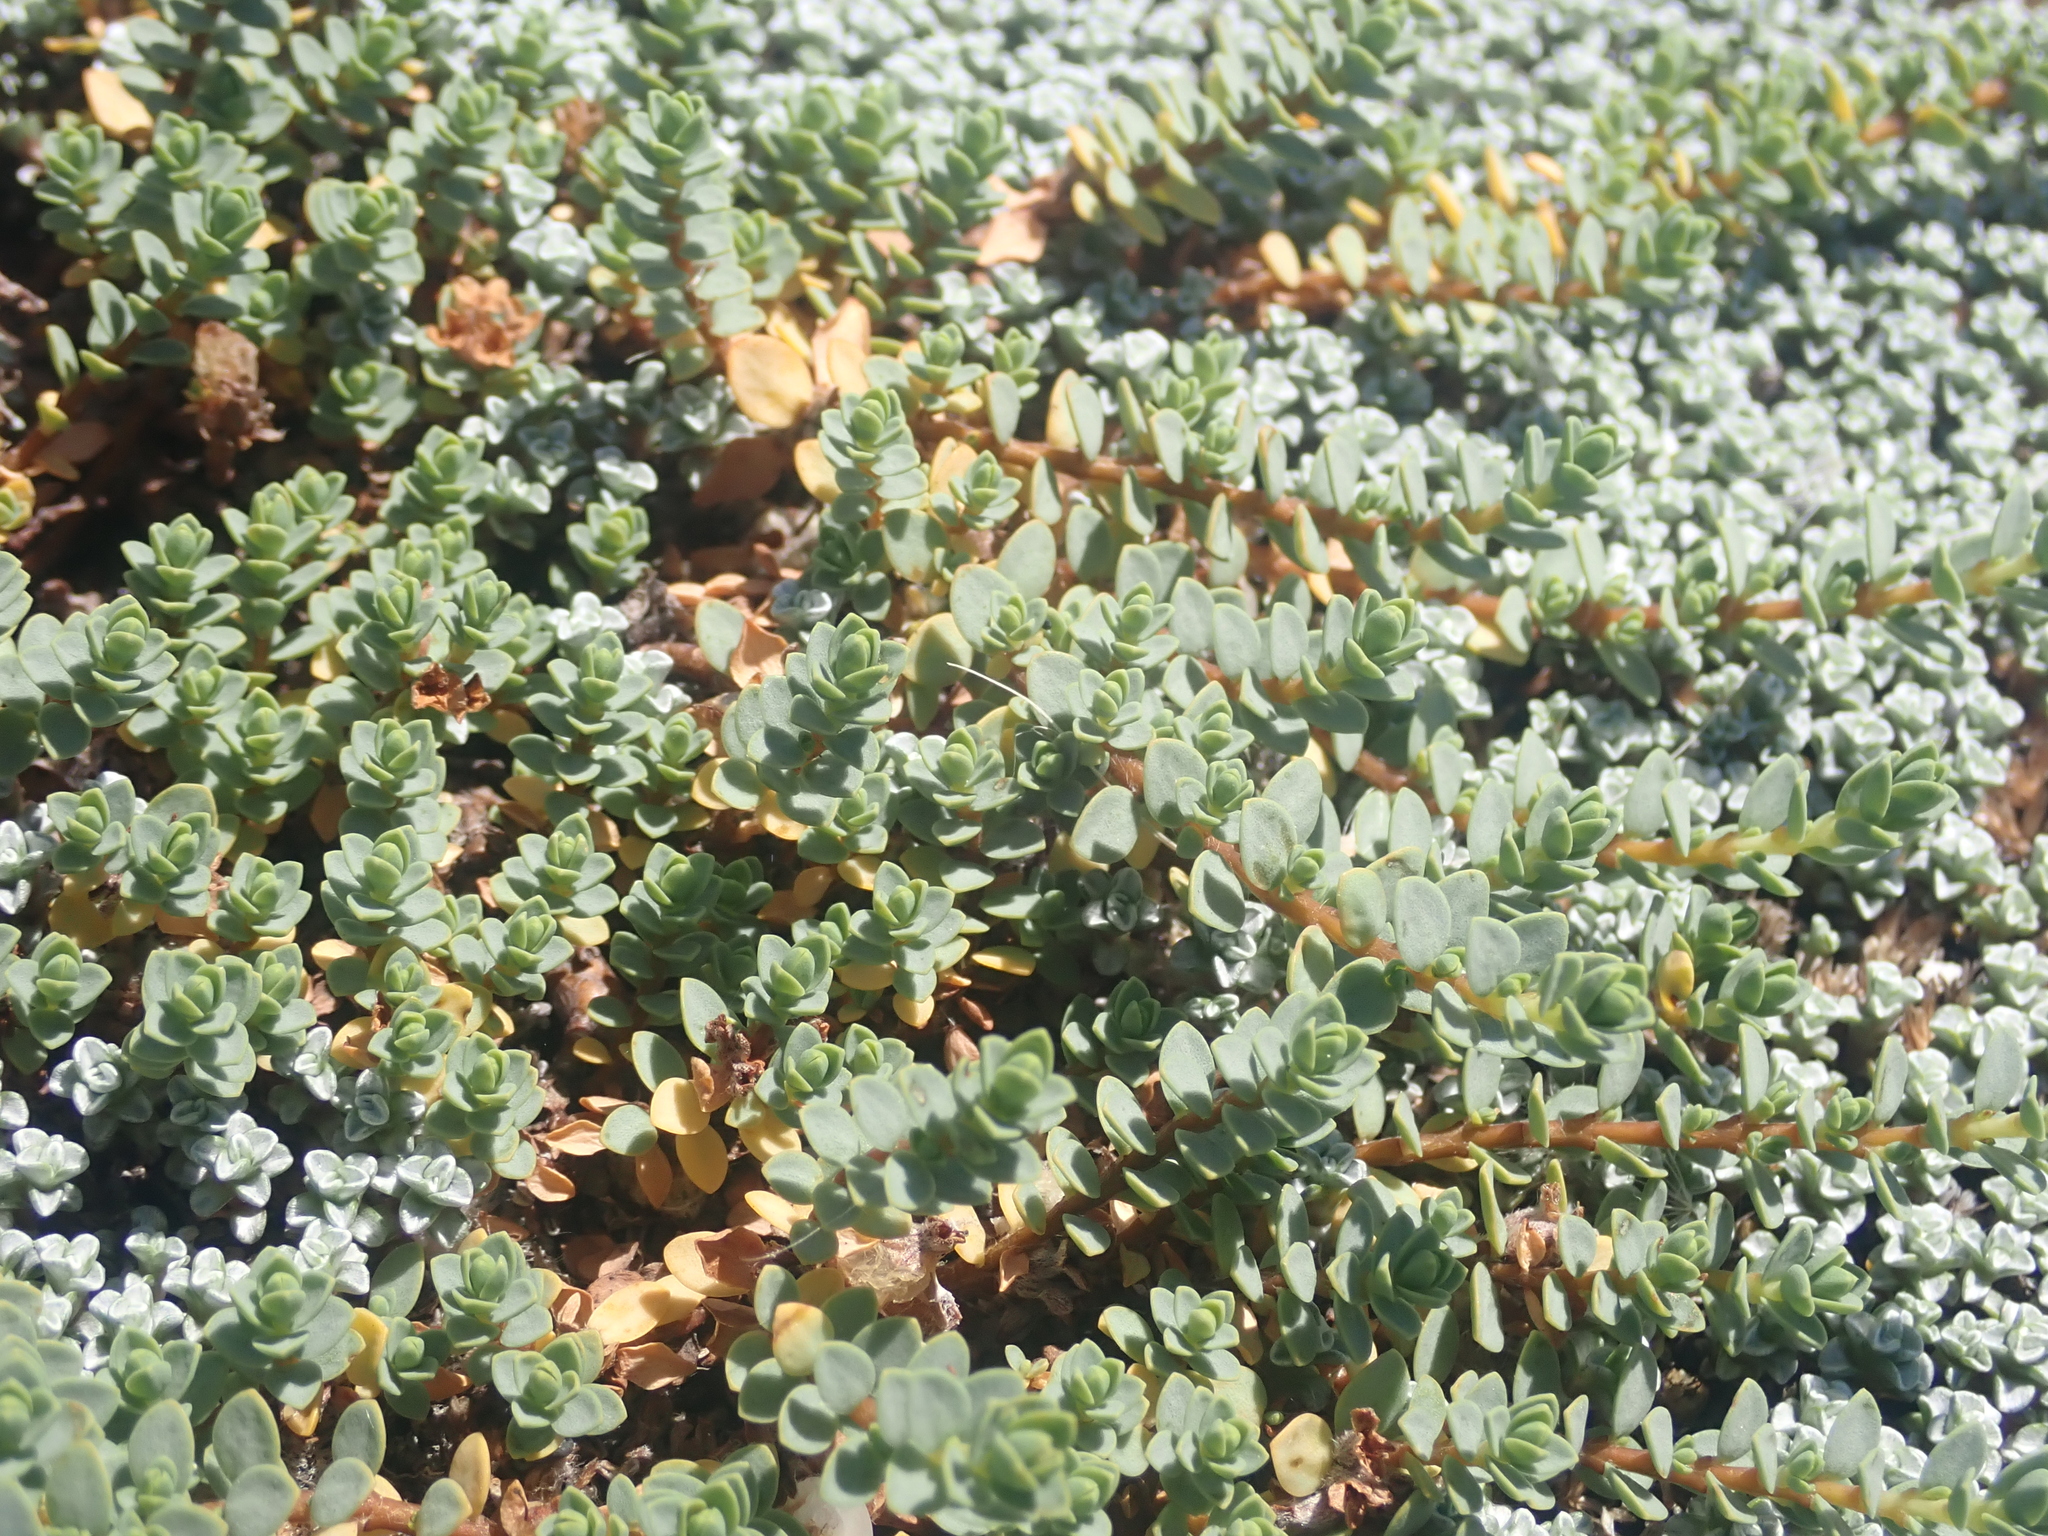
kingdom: Plantae
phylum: Tracheophyta
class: Magnoliopsida
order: Malvales
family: Thymelaeaceae
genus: Pimelea
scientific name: Pimelea prostrata
